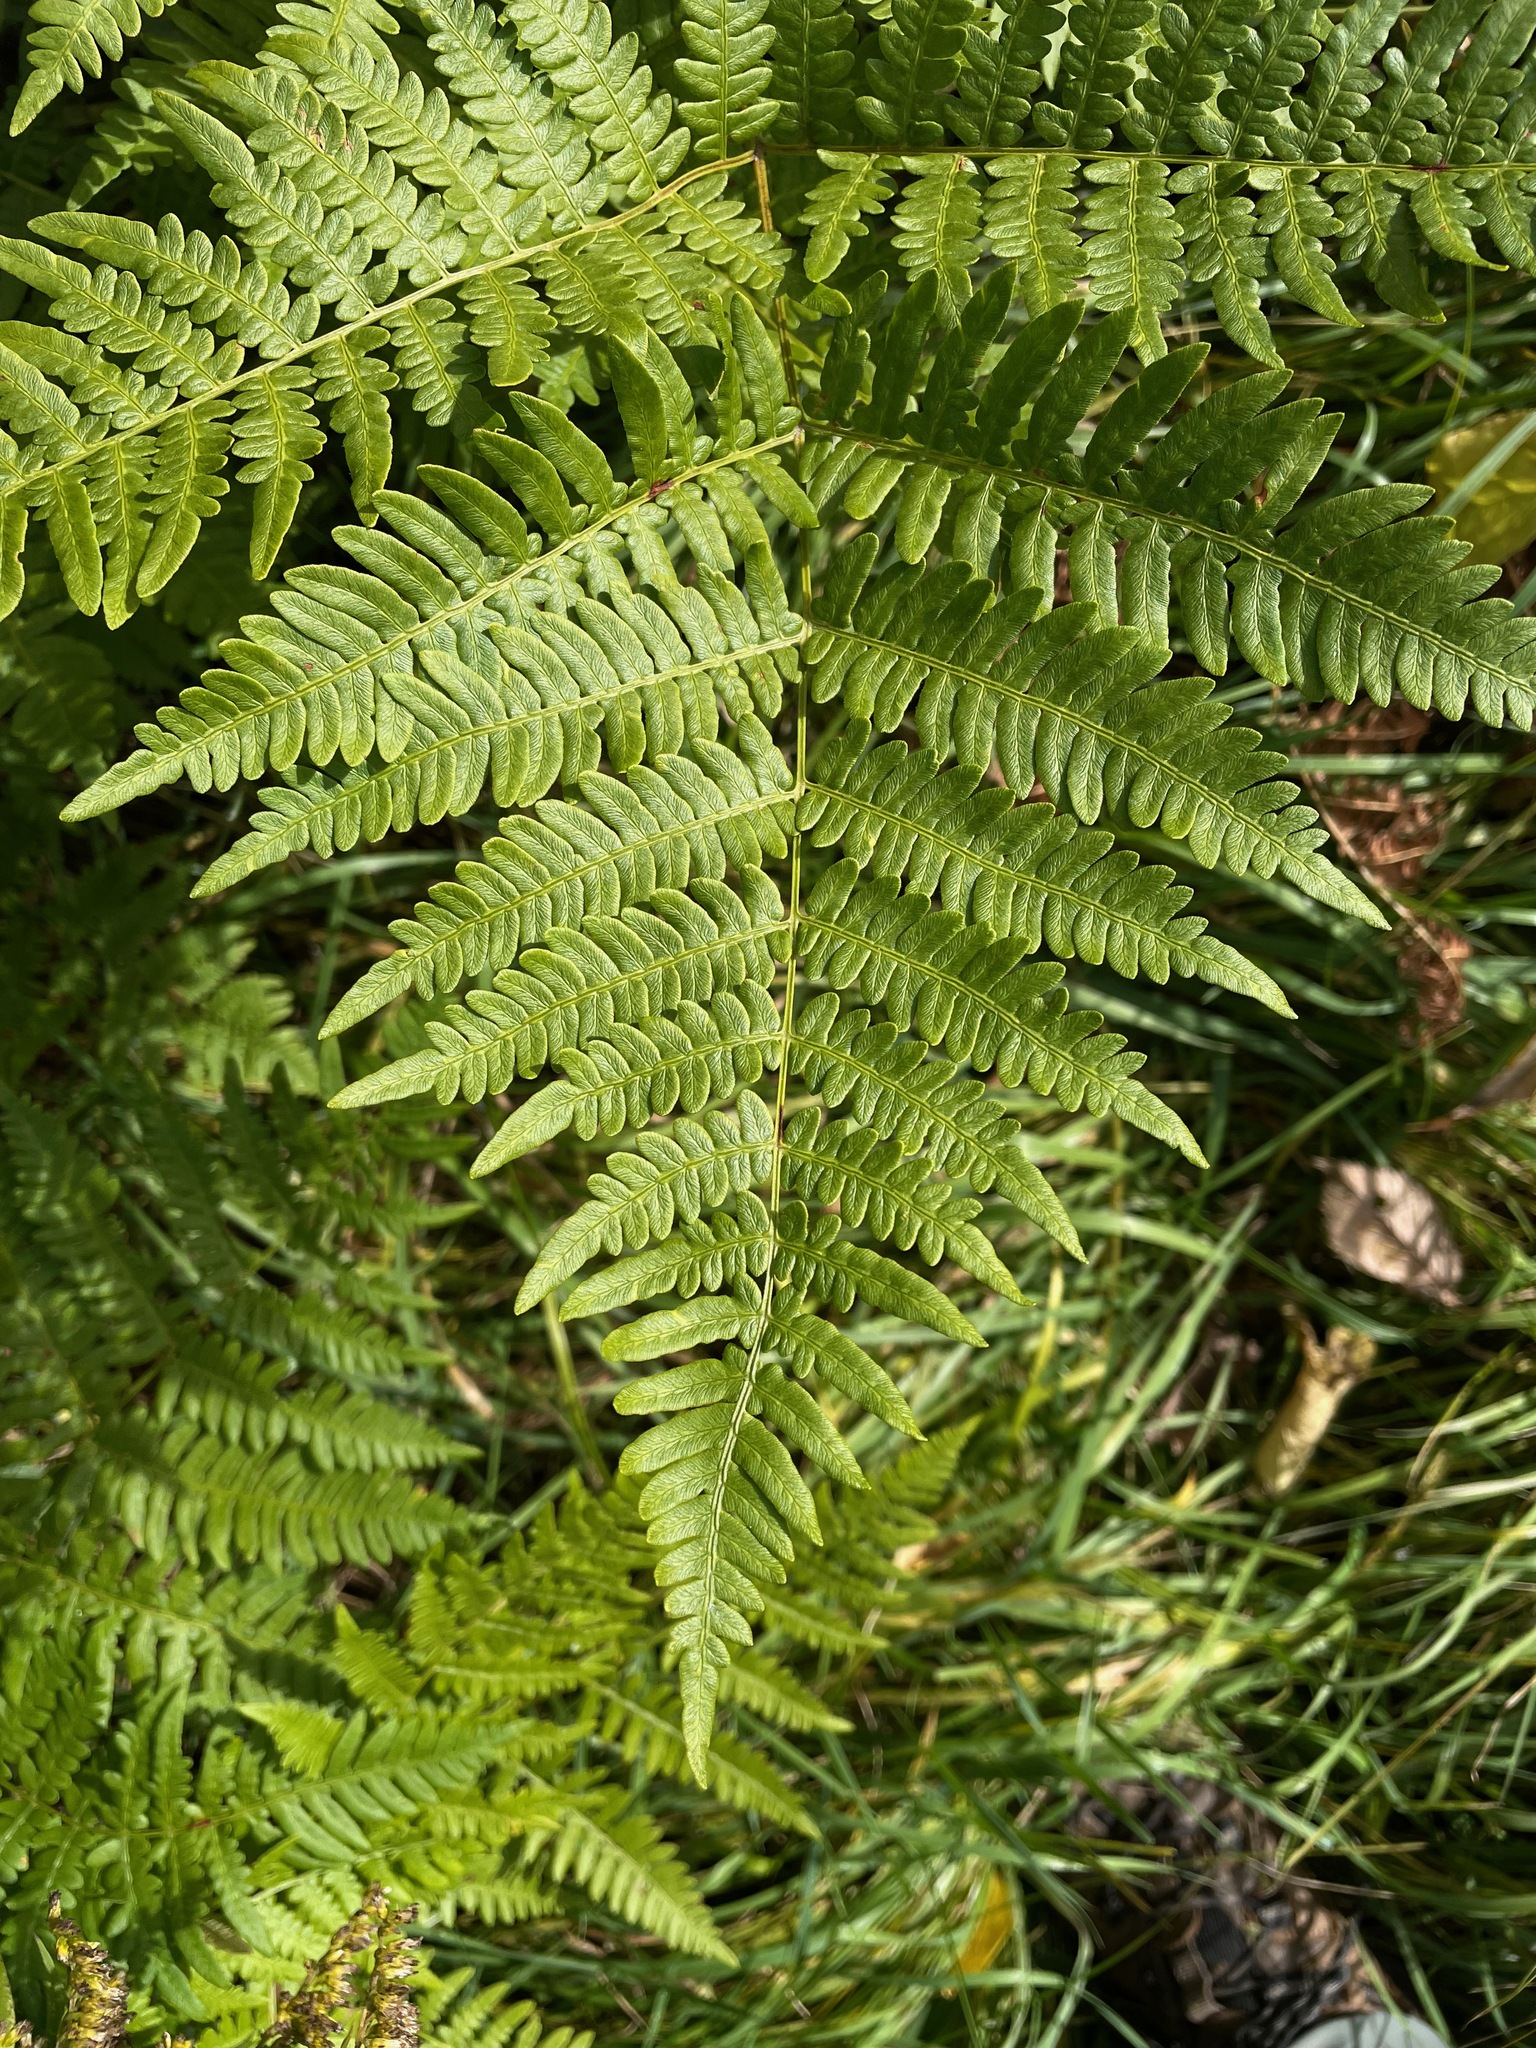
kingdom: Plantae
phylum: Tracheophyta
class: Polypodiopsida
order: Polypodiales
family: Dennstaedtiaceae
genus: Pteridium
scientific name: Pteridium aquilinum
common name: Bracken
